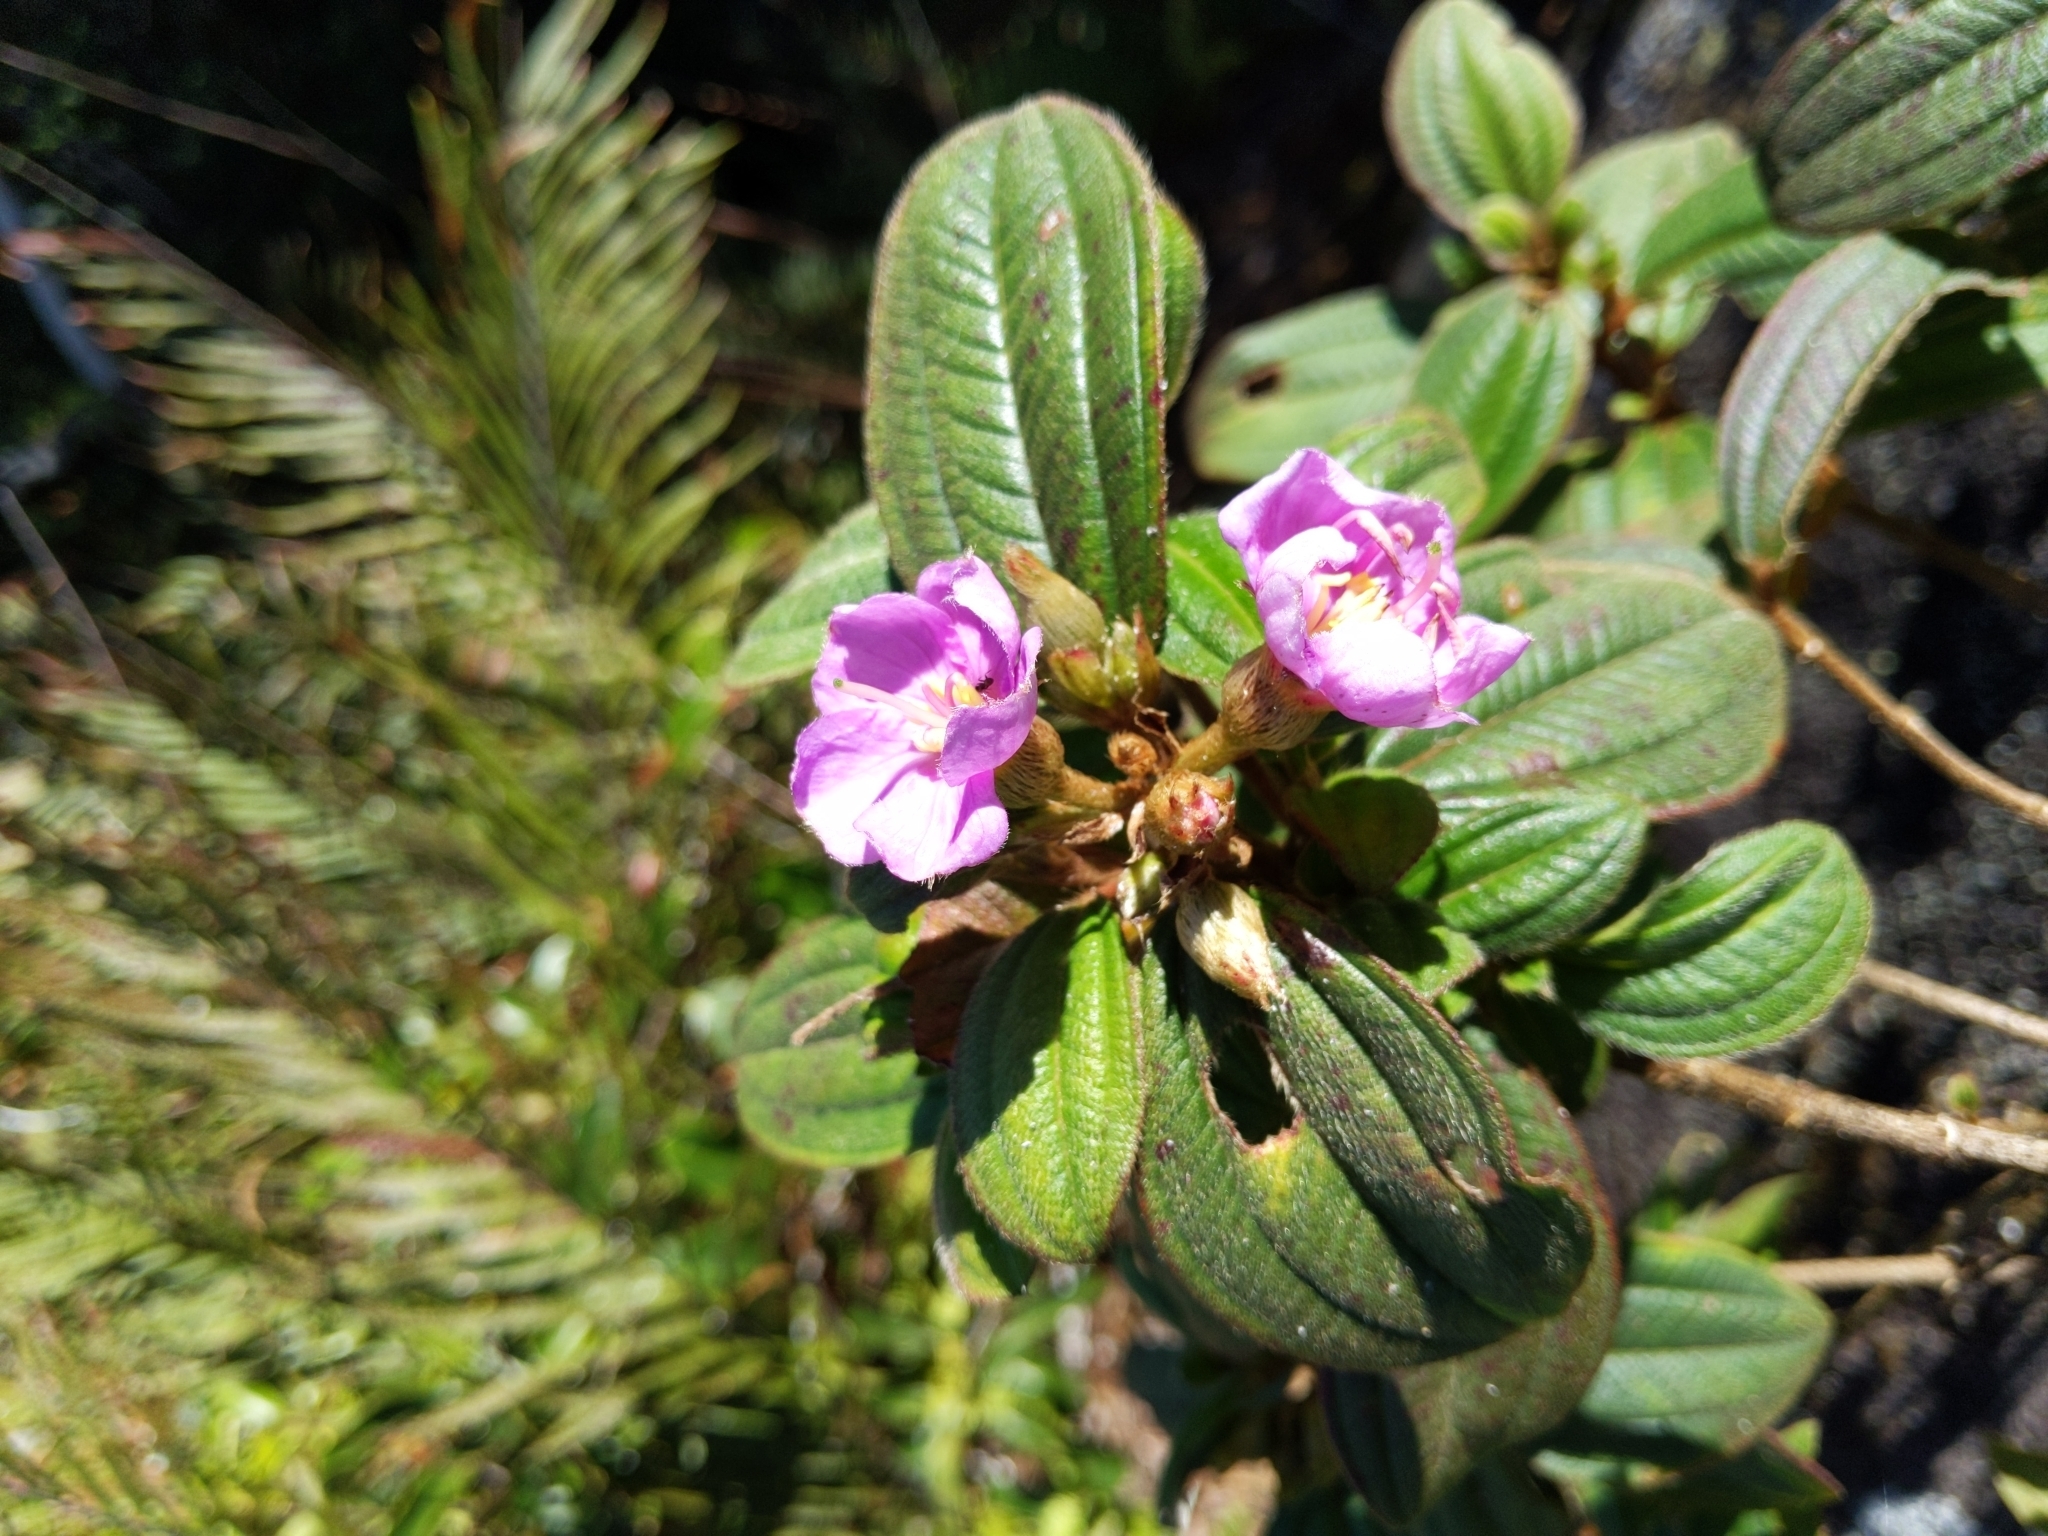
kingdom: Plantae
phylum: Tracheophyta
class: Magnoliopsida
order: Myrtales
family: Melastomataceae
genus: Melastoma
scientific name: Melastoma malabathricum
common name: Indian-rhododendron
